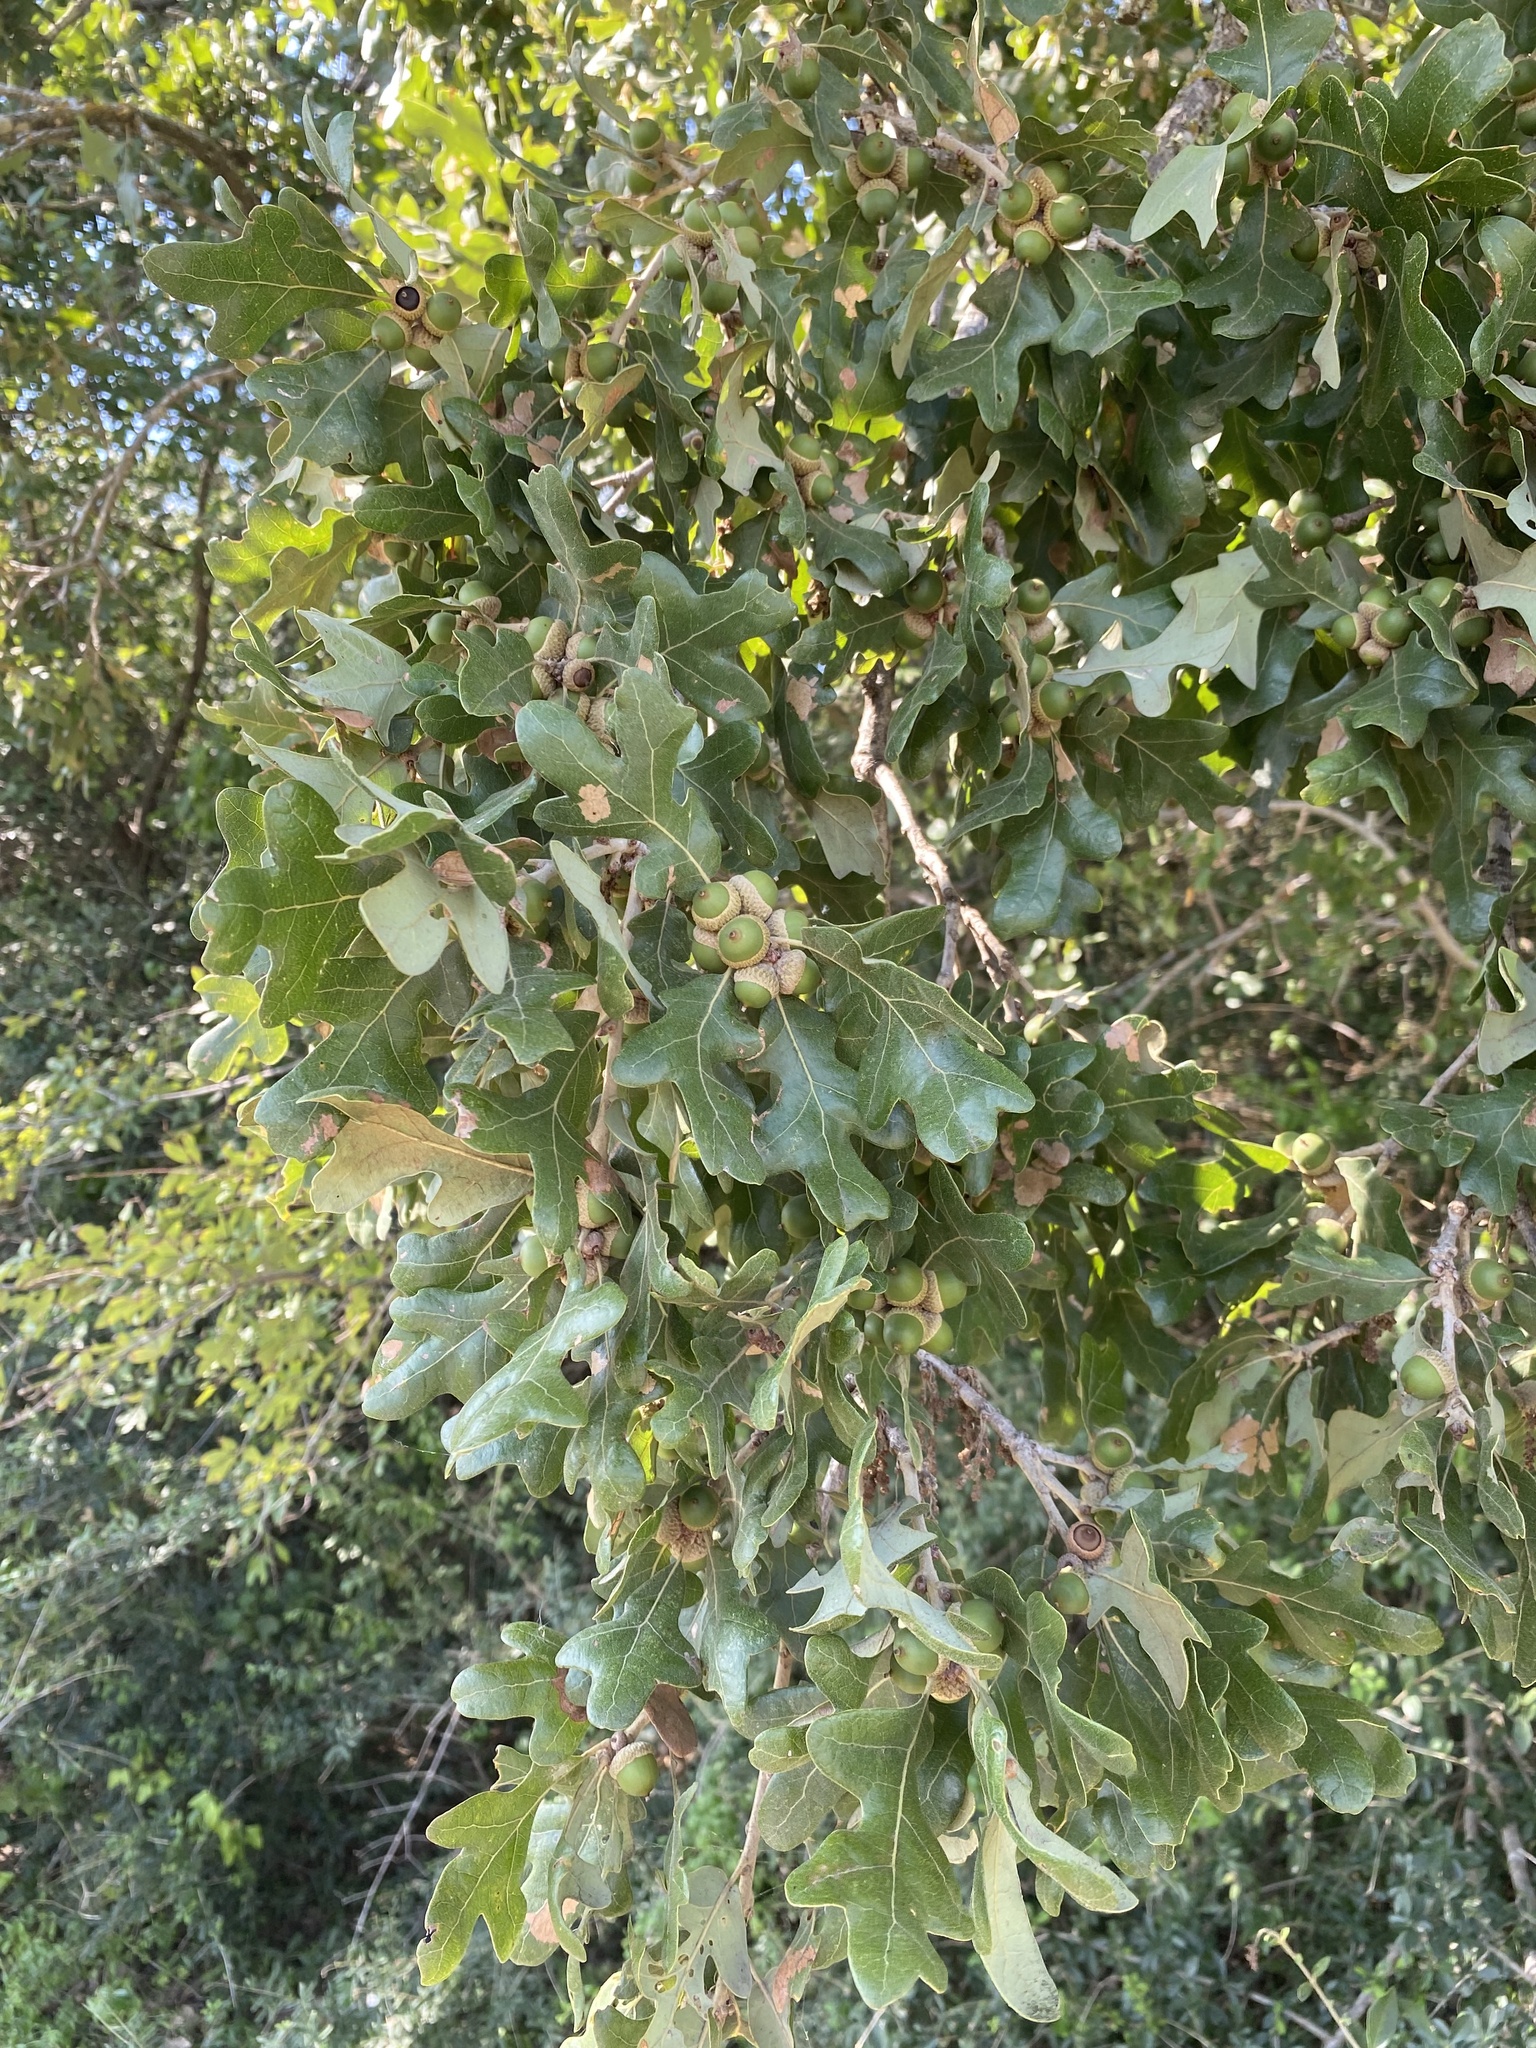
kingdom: Plantae
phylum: Tracheophyta
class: Magnoliopsida
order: Fagales
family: Fagaceae
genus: Quercus
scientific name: Quercus stellata
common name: Post oak
